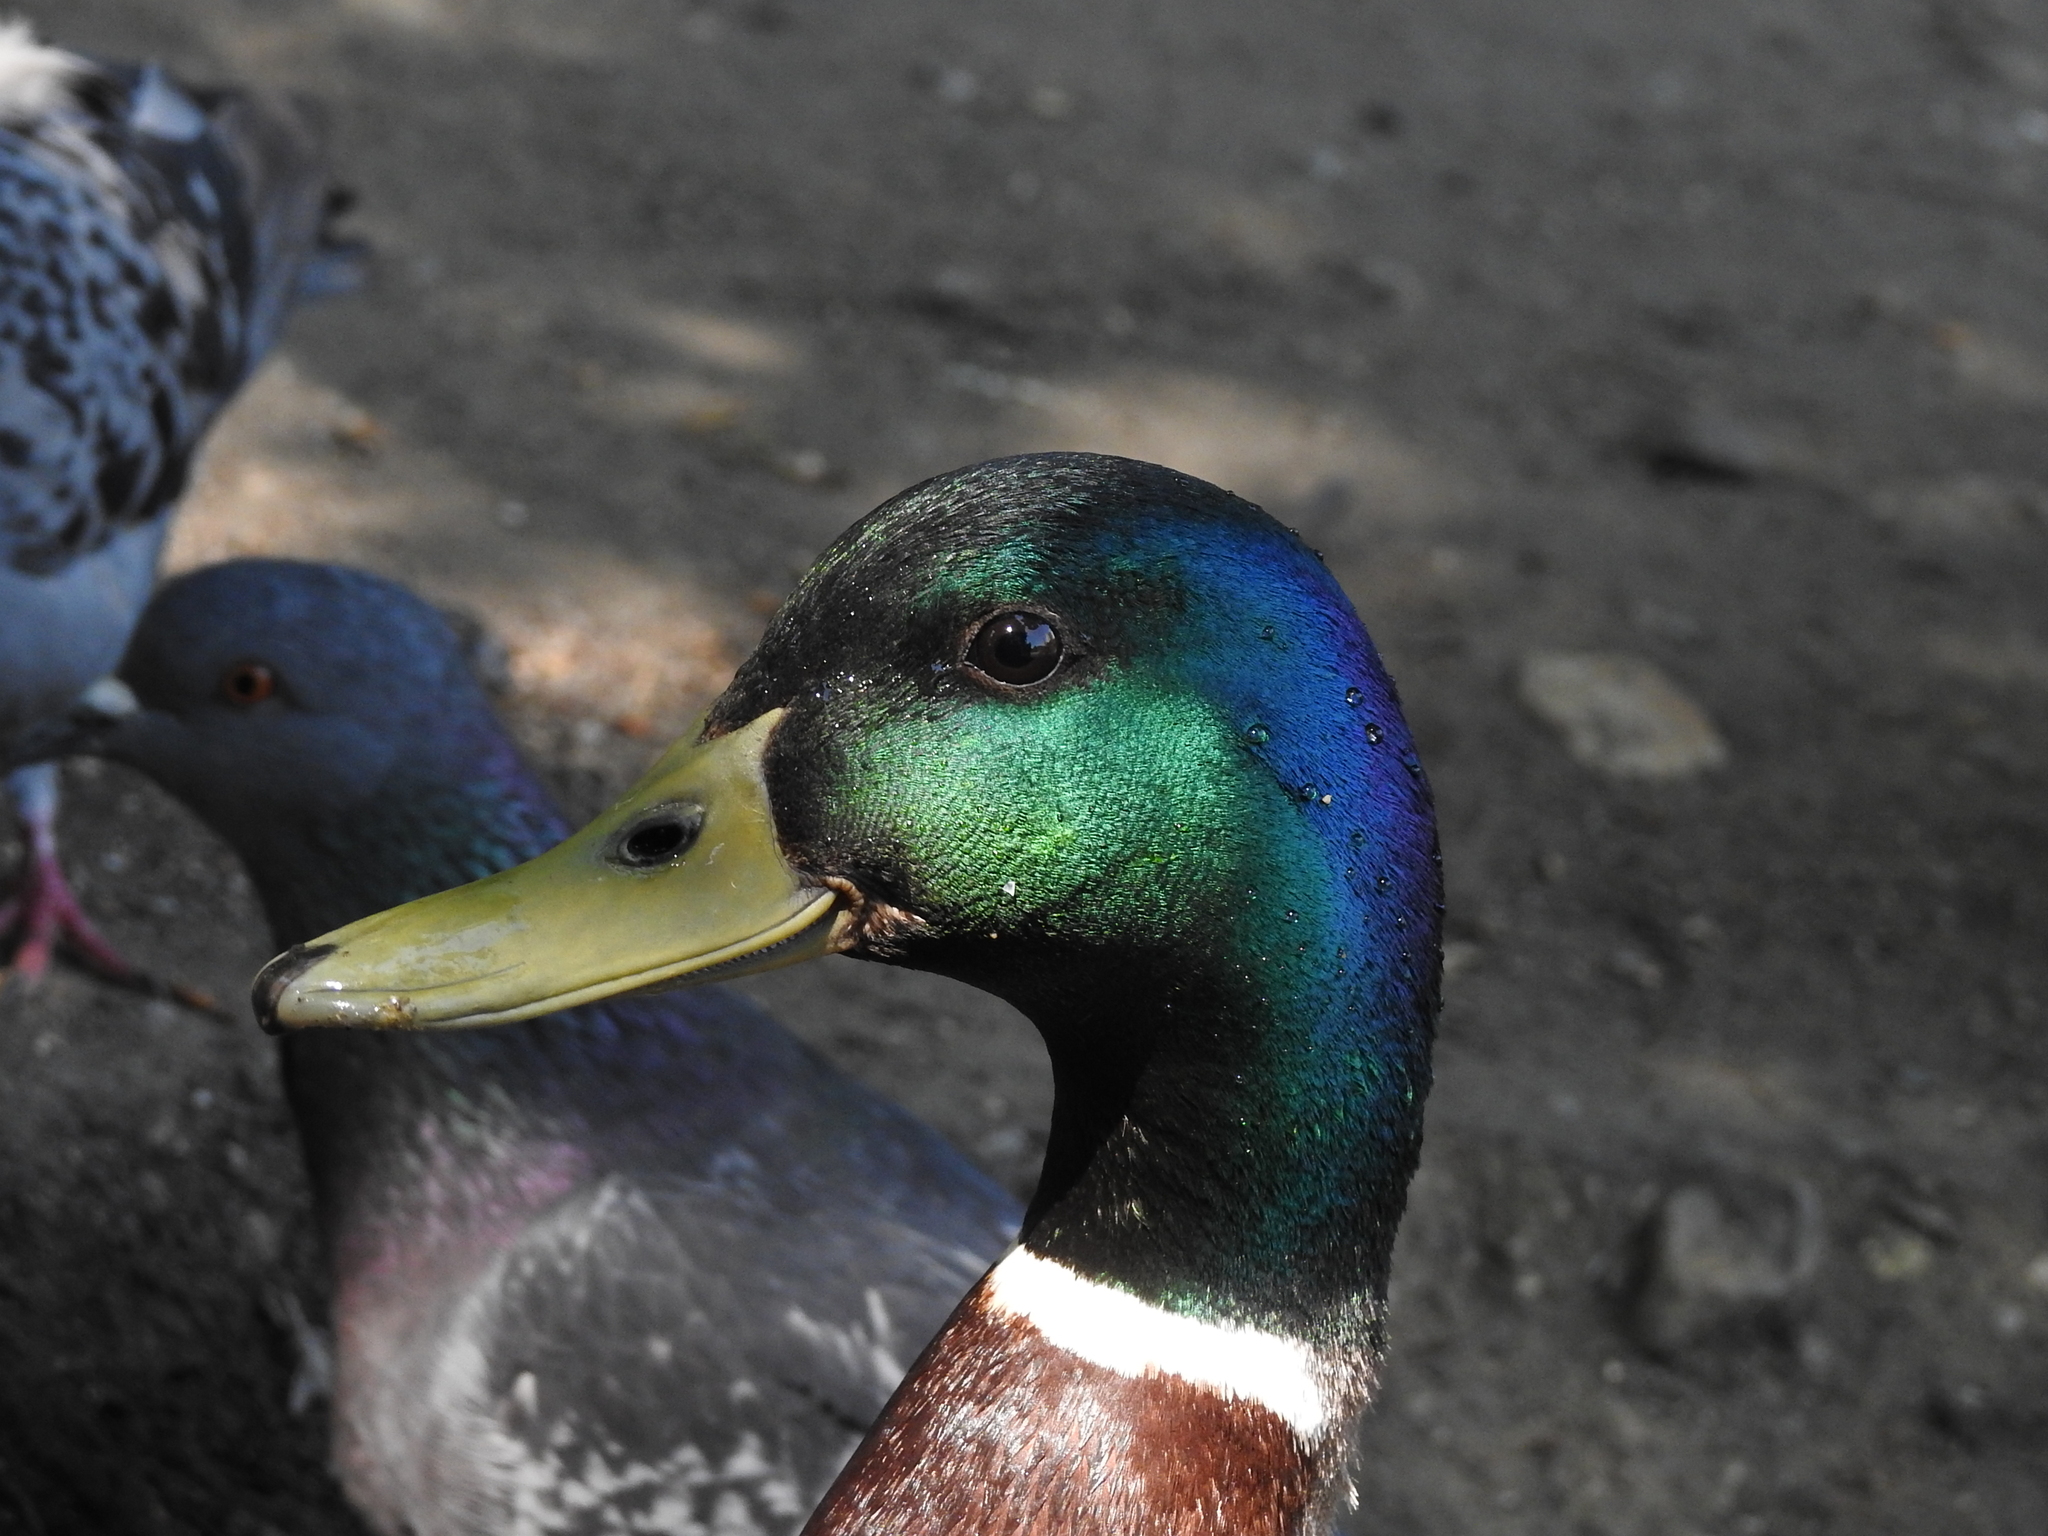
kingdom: Animalia
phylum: Chordata
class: Aves
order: Anseriformes
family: Anatidae
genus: Anas
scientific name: Anas platyrhynchos
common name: Mallard
